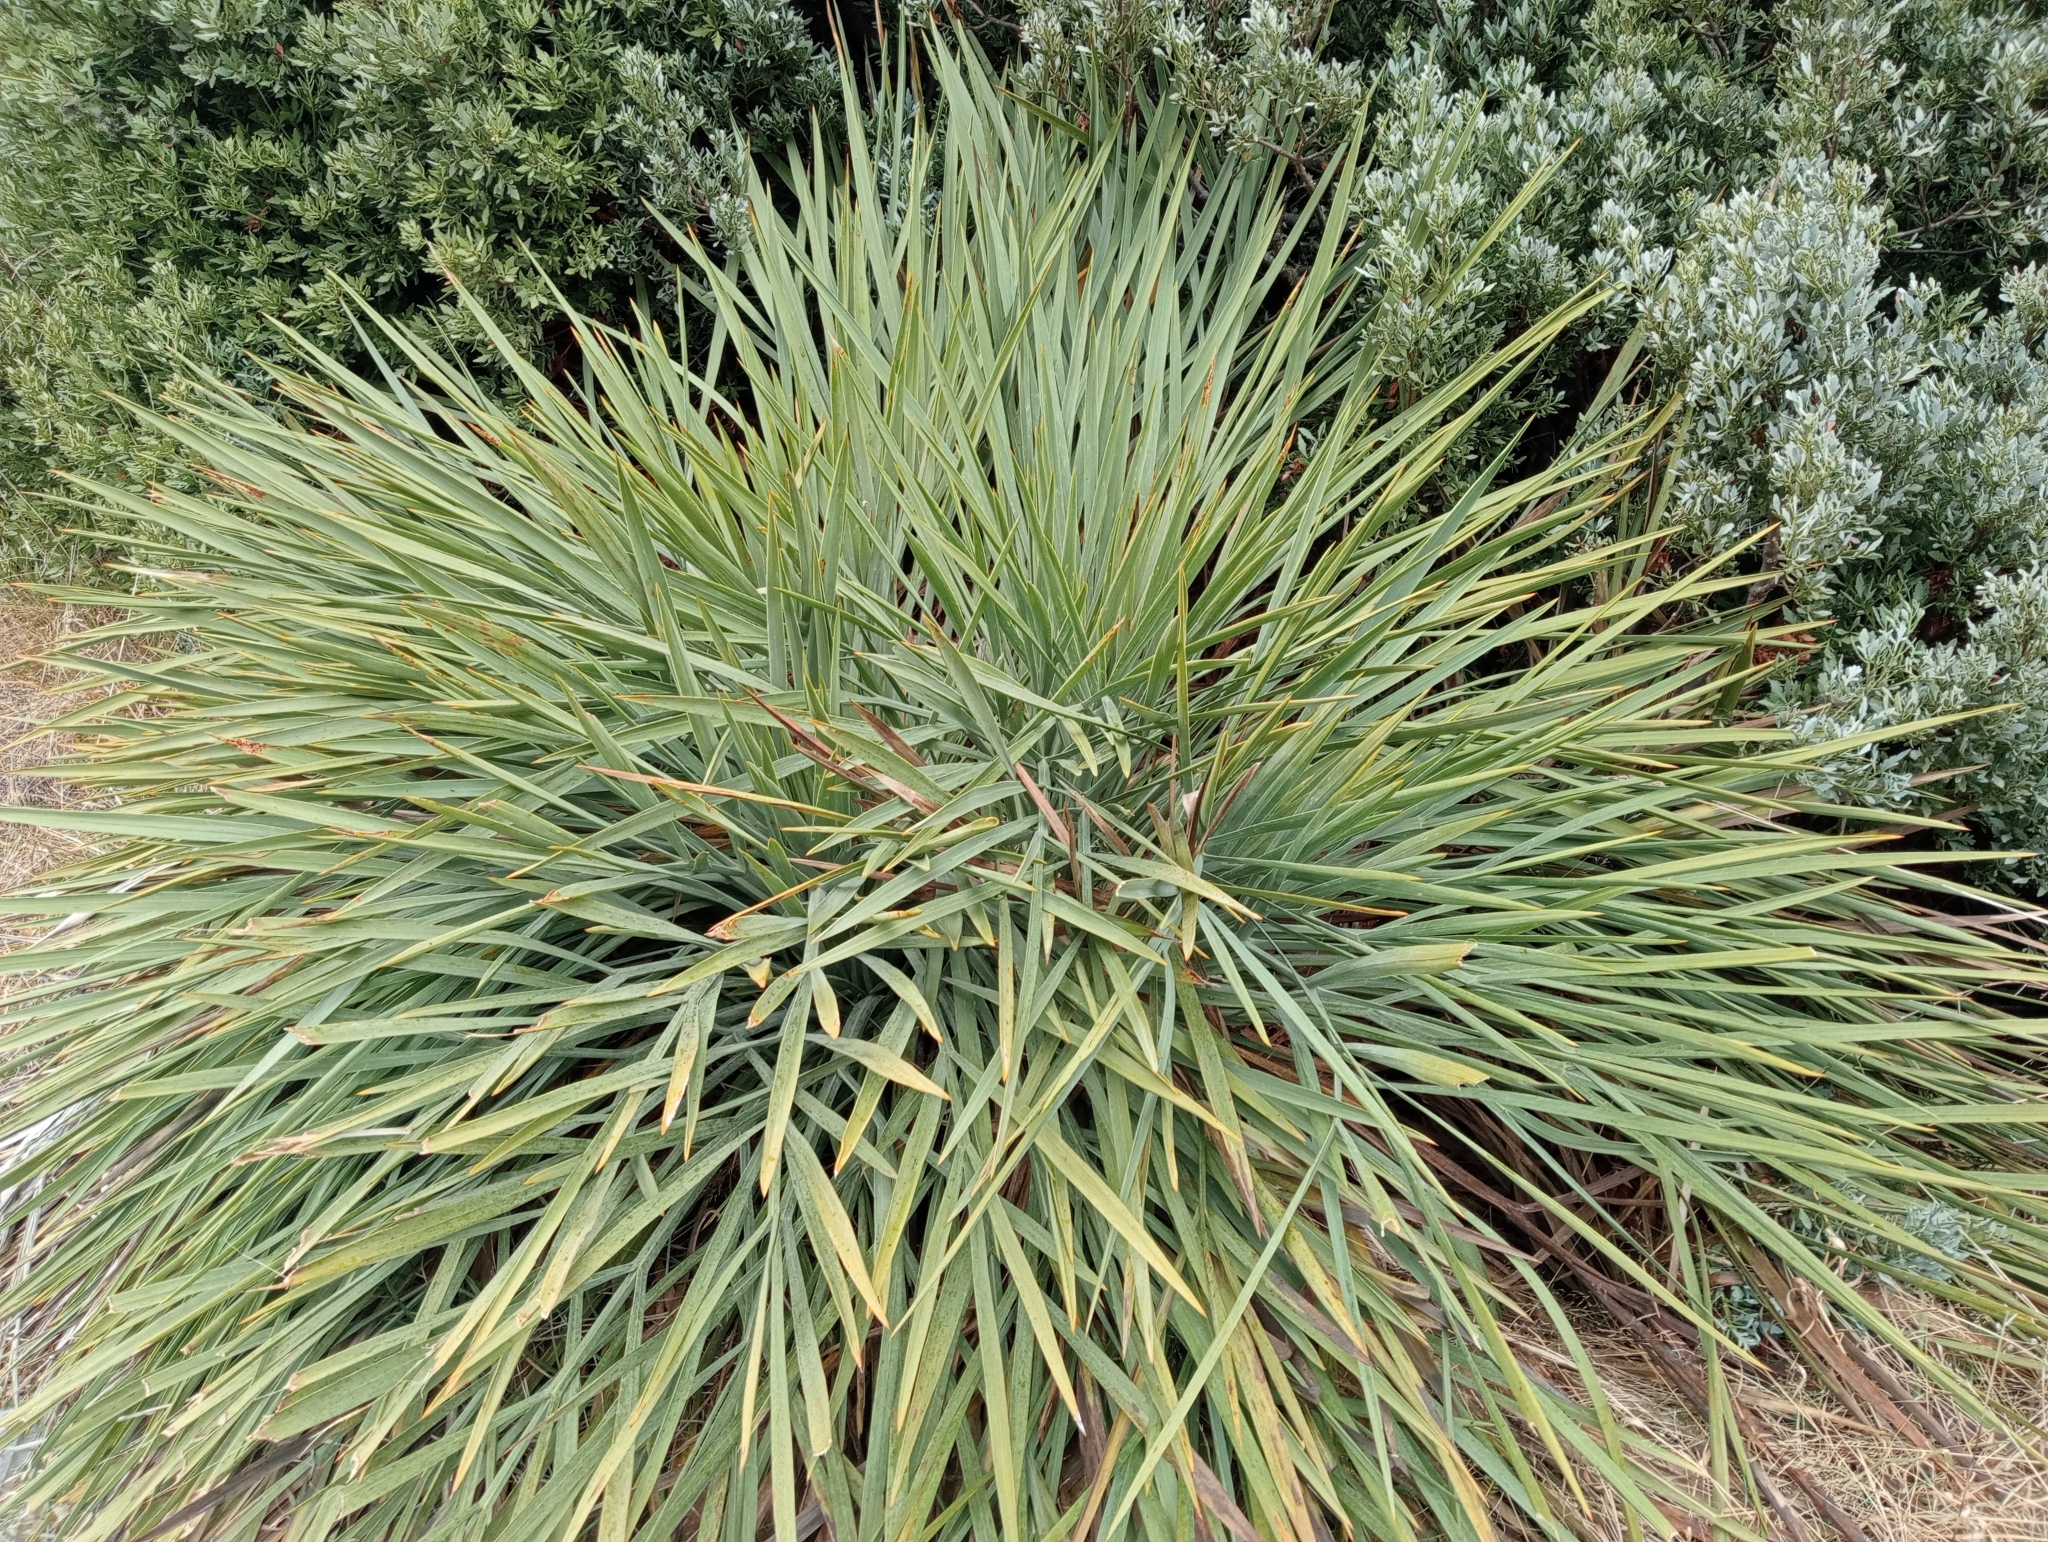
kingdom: Plantae
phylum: Tracheophyta
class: Magnoliopsida
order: Apiales
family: Apiaceae
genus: Aciphylla
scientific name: Aciphylla scott-thomsonii
